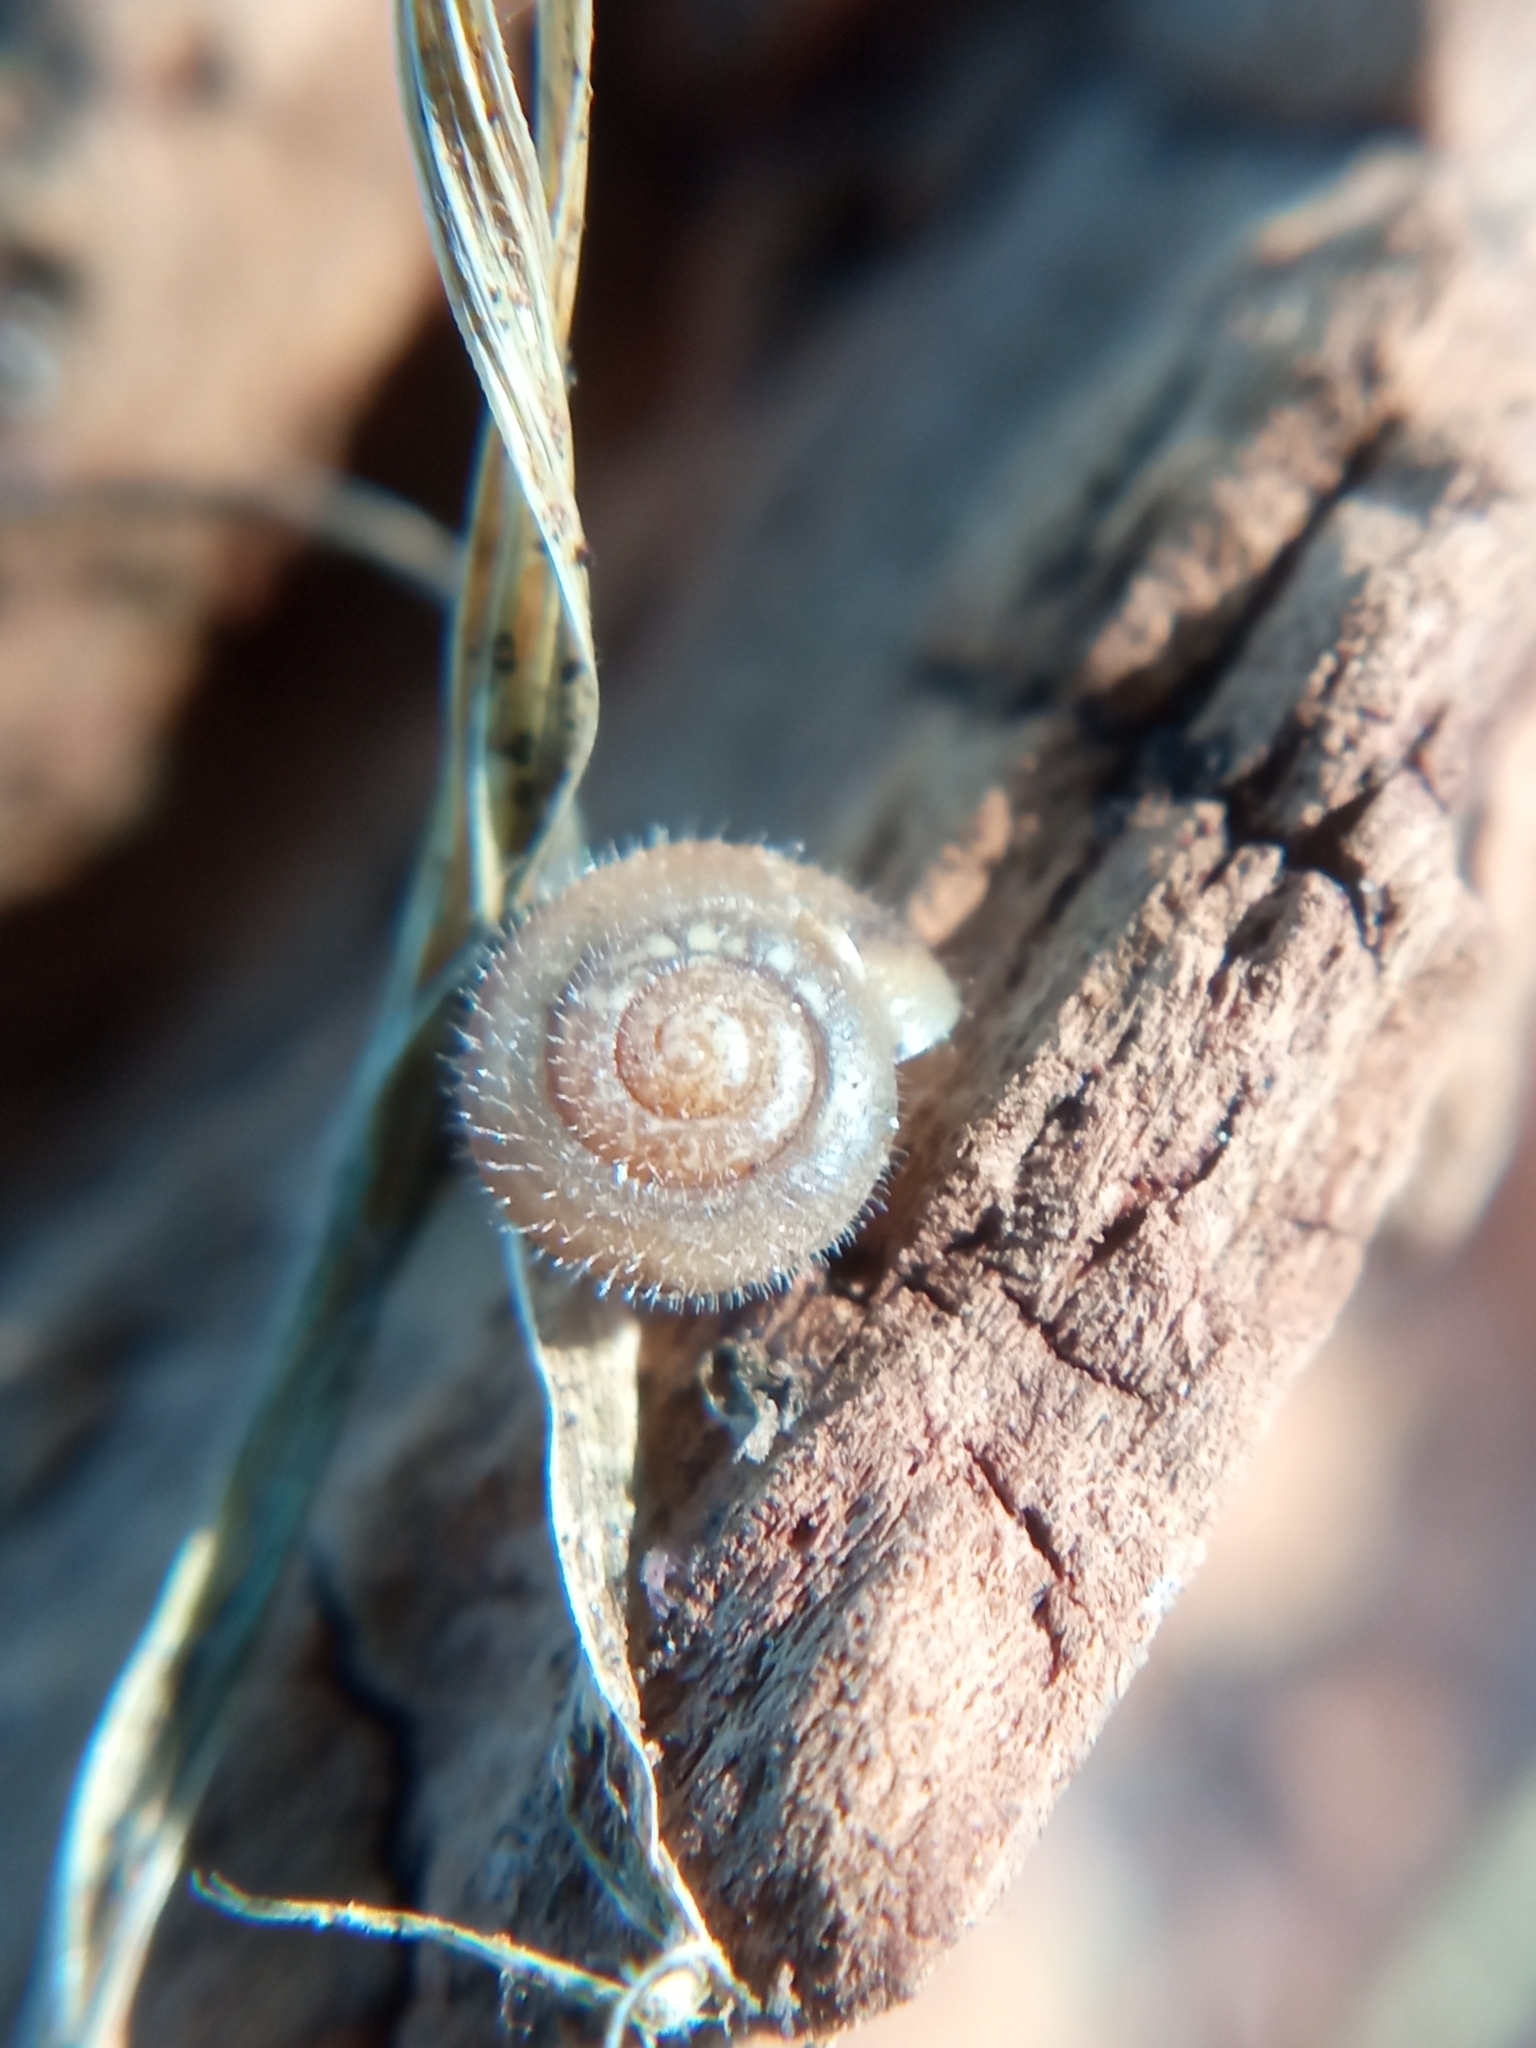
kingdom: Animalia
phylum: Mollusca
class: Gastropoda
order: Stylommatophora
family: Hygromiidae
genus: Trochulus
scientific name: Trochulus hispidus
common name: Hairy snail
